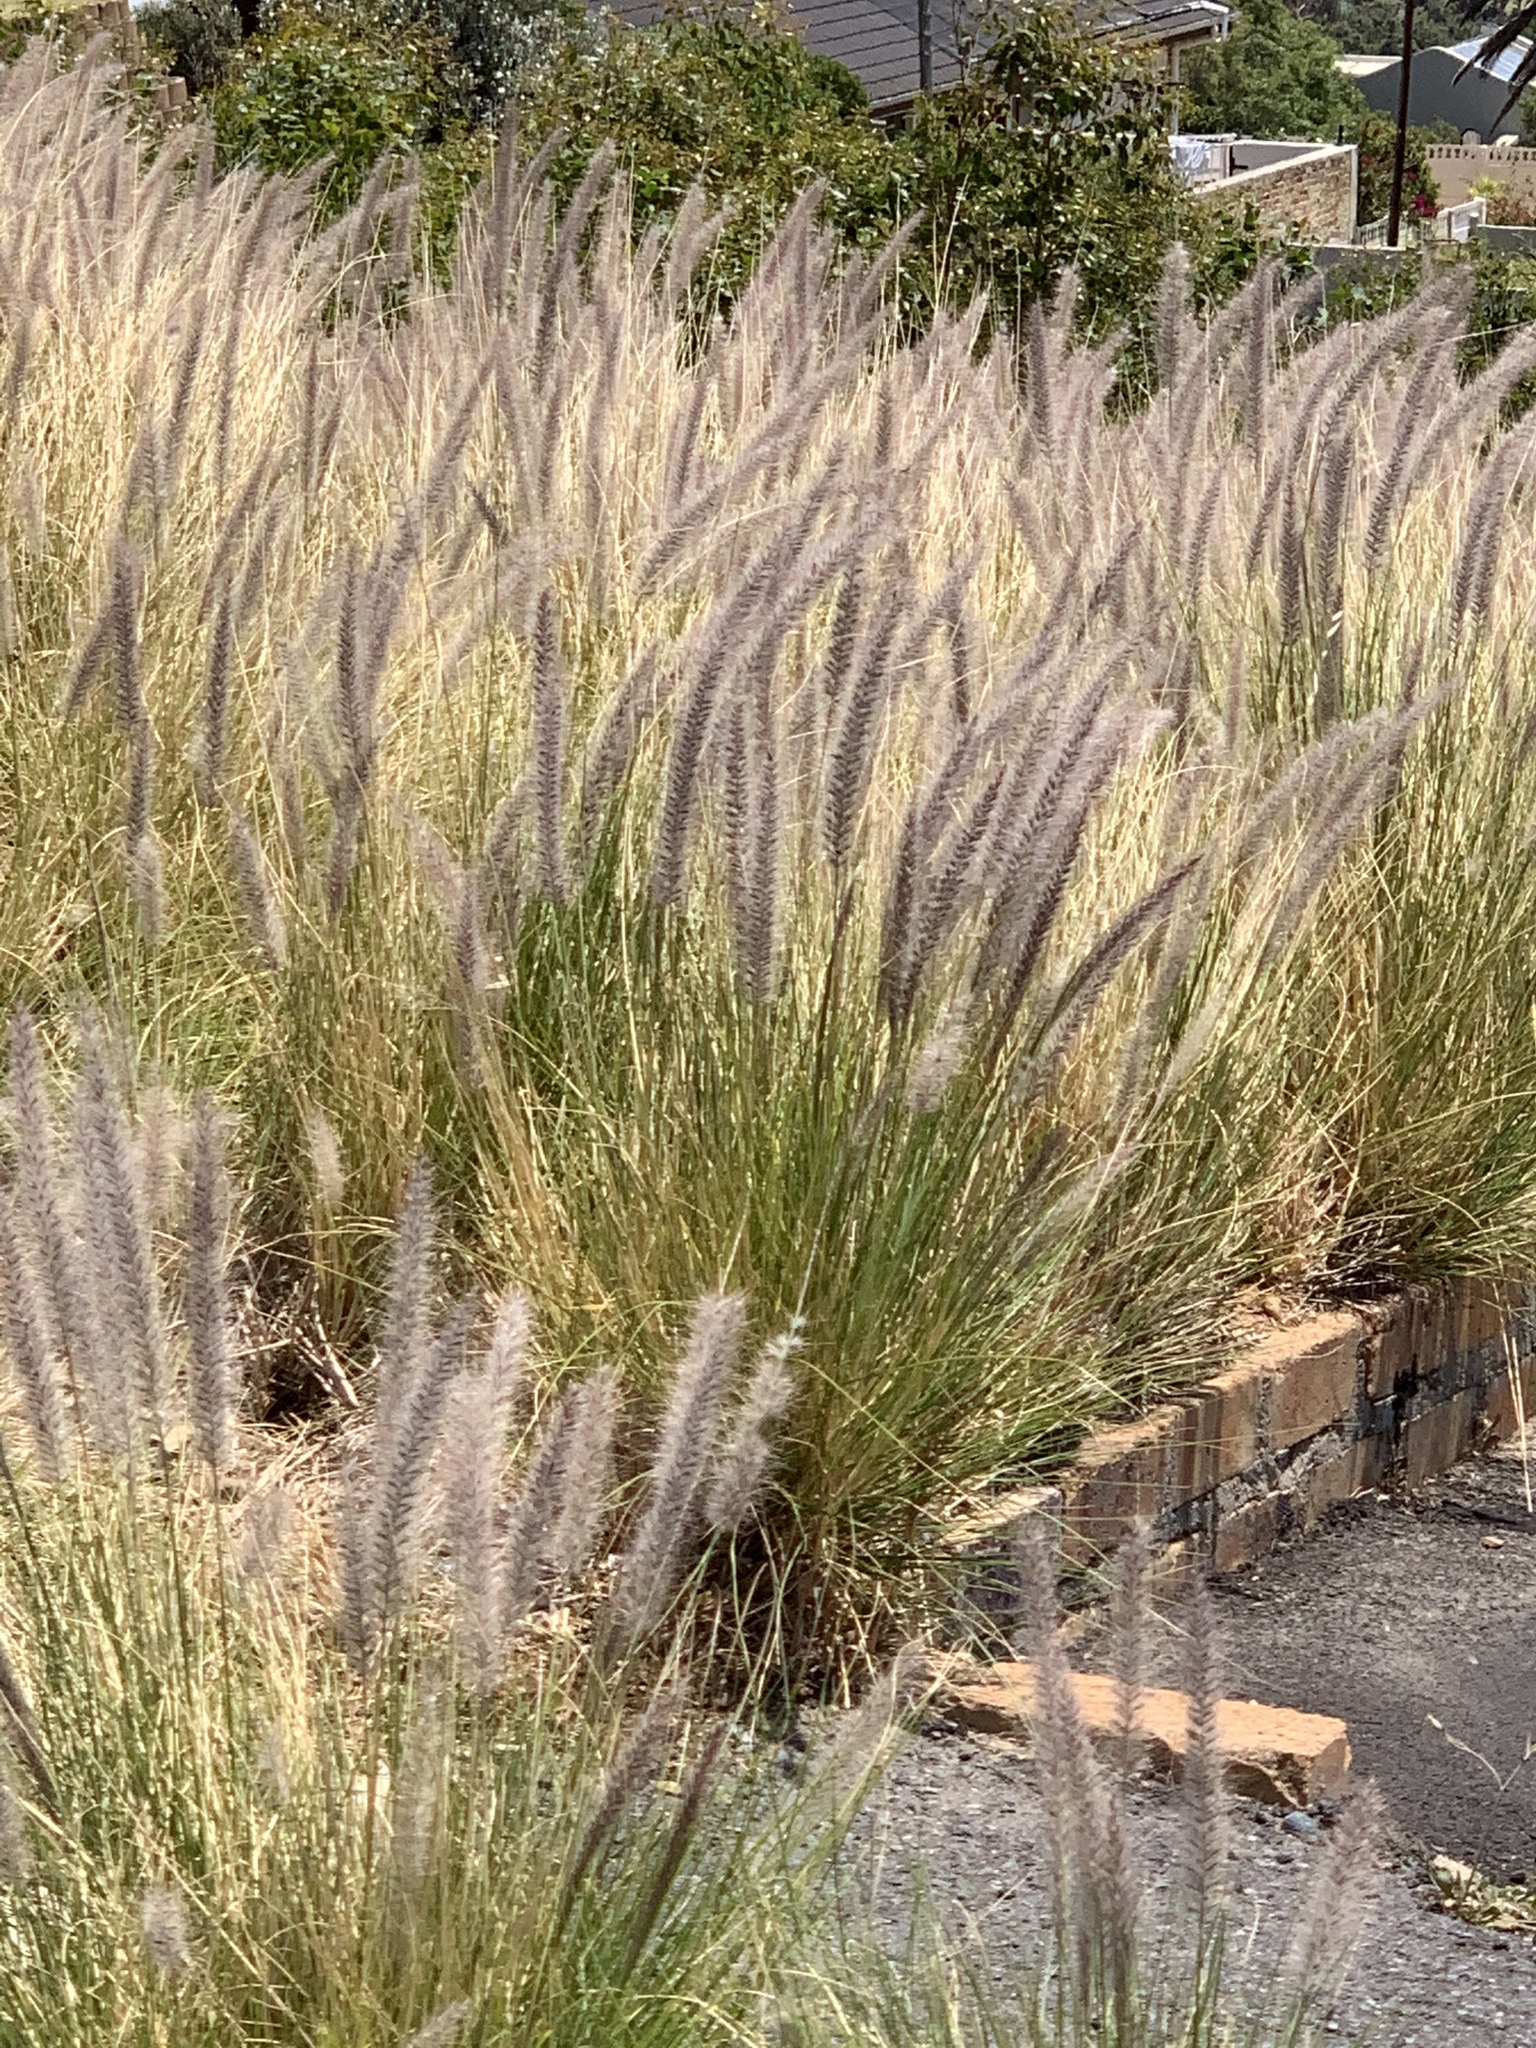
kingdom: Plantae
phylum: Tracheophyta
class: Liliopsida
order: Poales
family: Poaceae
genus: Cenchrus
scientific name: Cenchrus setaceus
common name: Crimson fountaingrass
